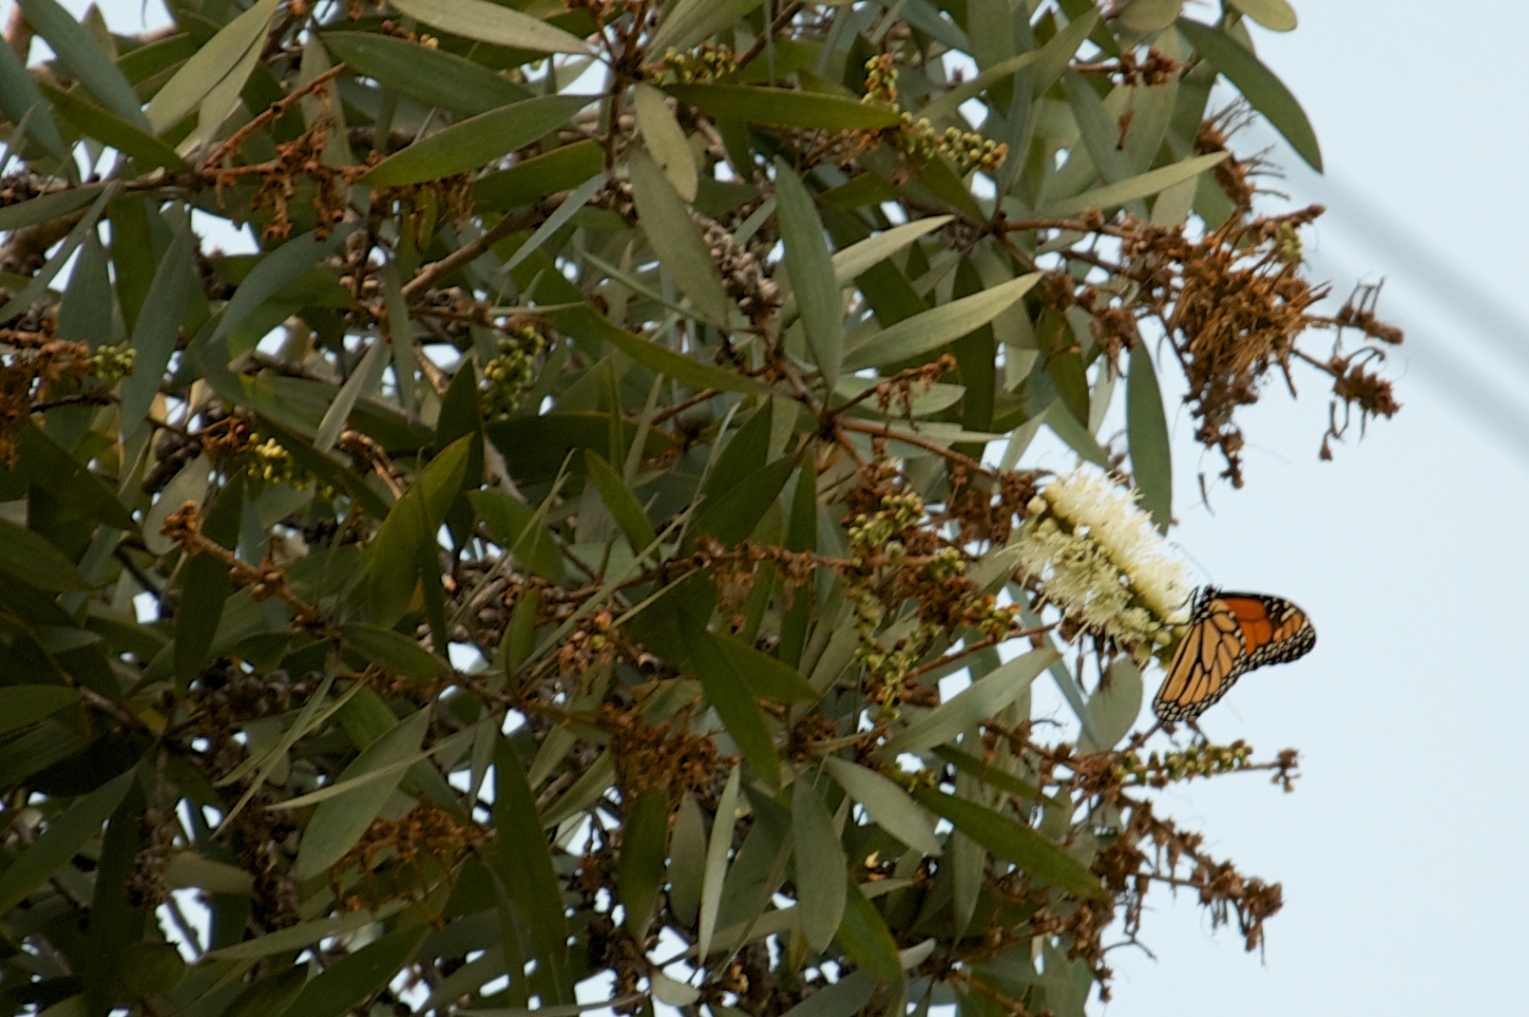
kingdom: Animalia
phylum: Arthropoda
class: Insecta
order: Lepidoptera
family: Nymphalidae
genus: Danaus
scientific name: Danaus plexippus
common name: Monarch
